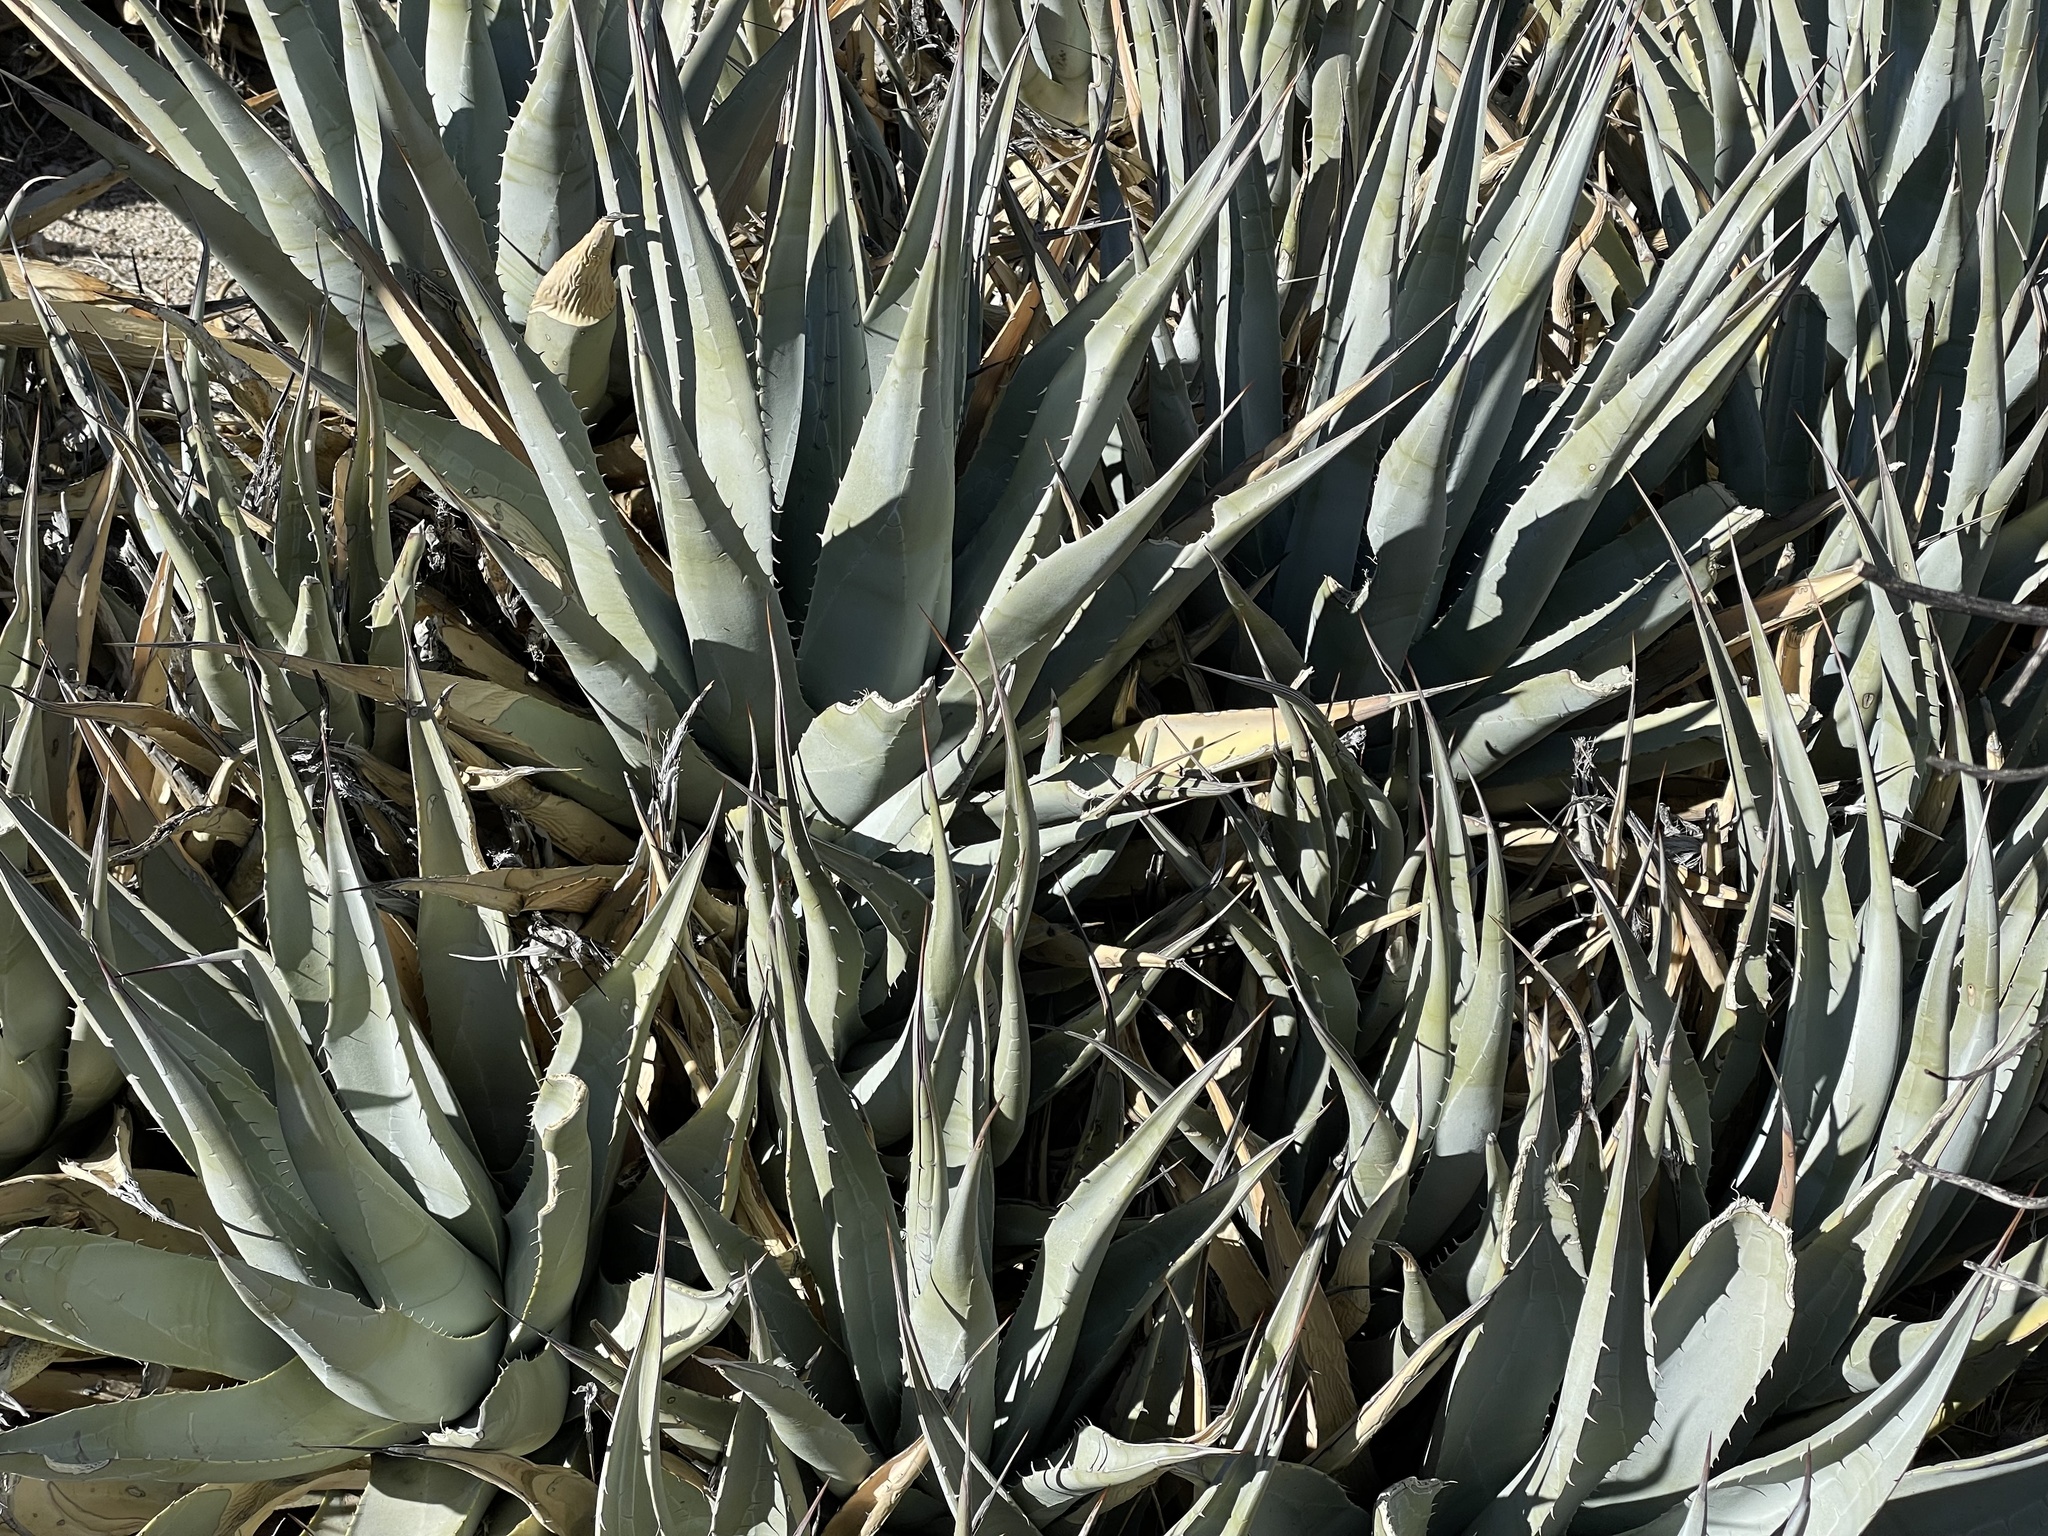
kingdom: Plantae
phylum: Tracheophyta
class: Liliopsida
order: Asparagales
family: Asparagaceae
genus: Agave
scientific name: Agave deserti
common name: Desert agave
